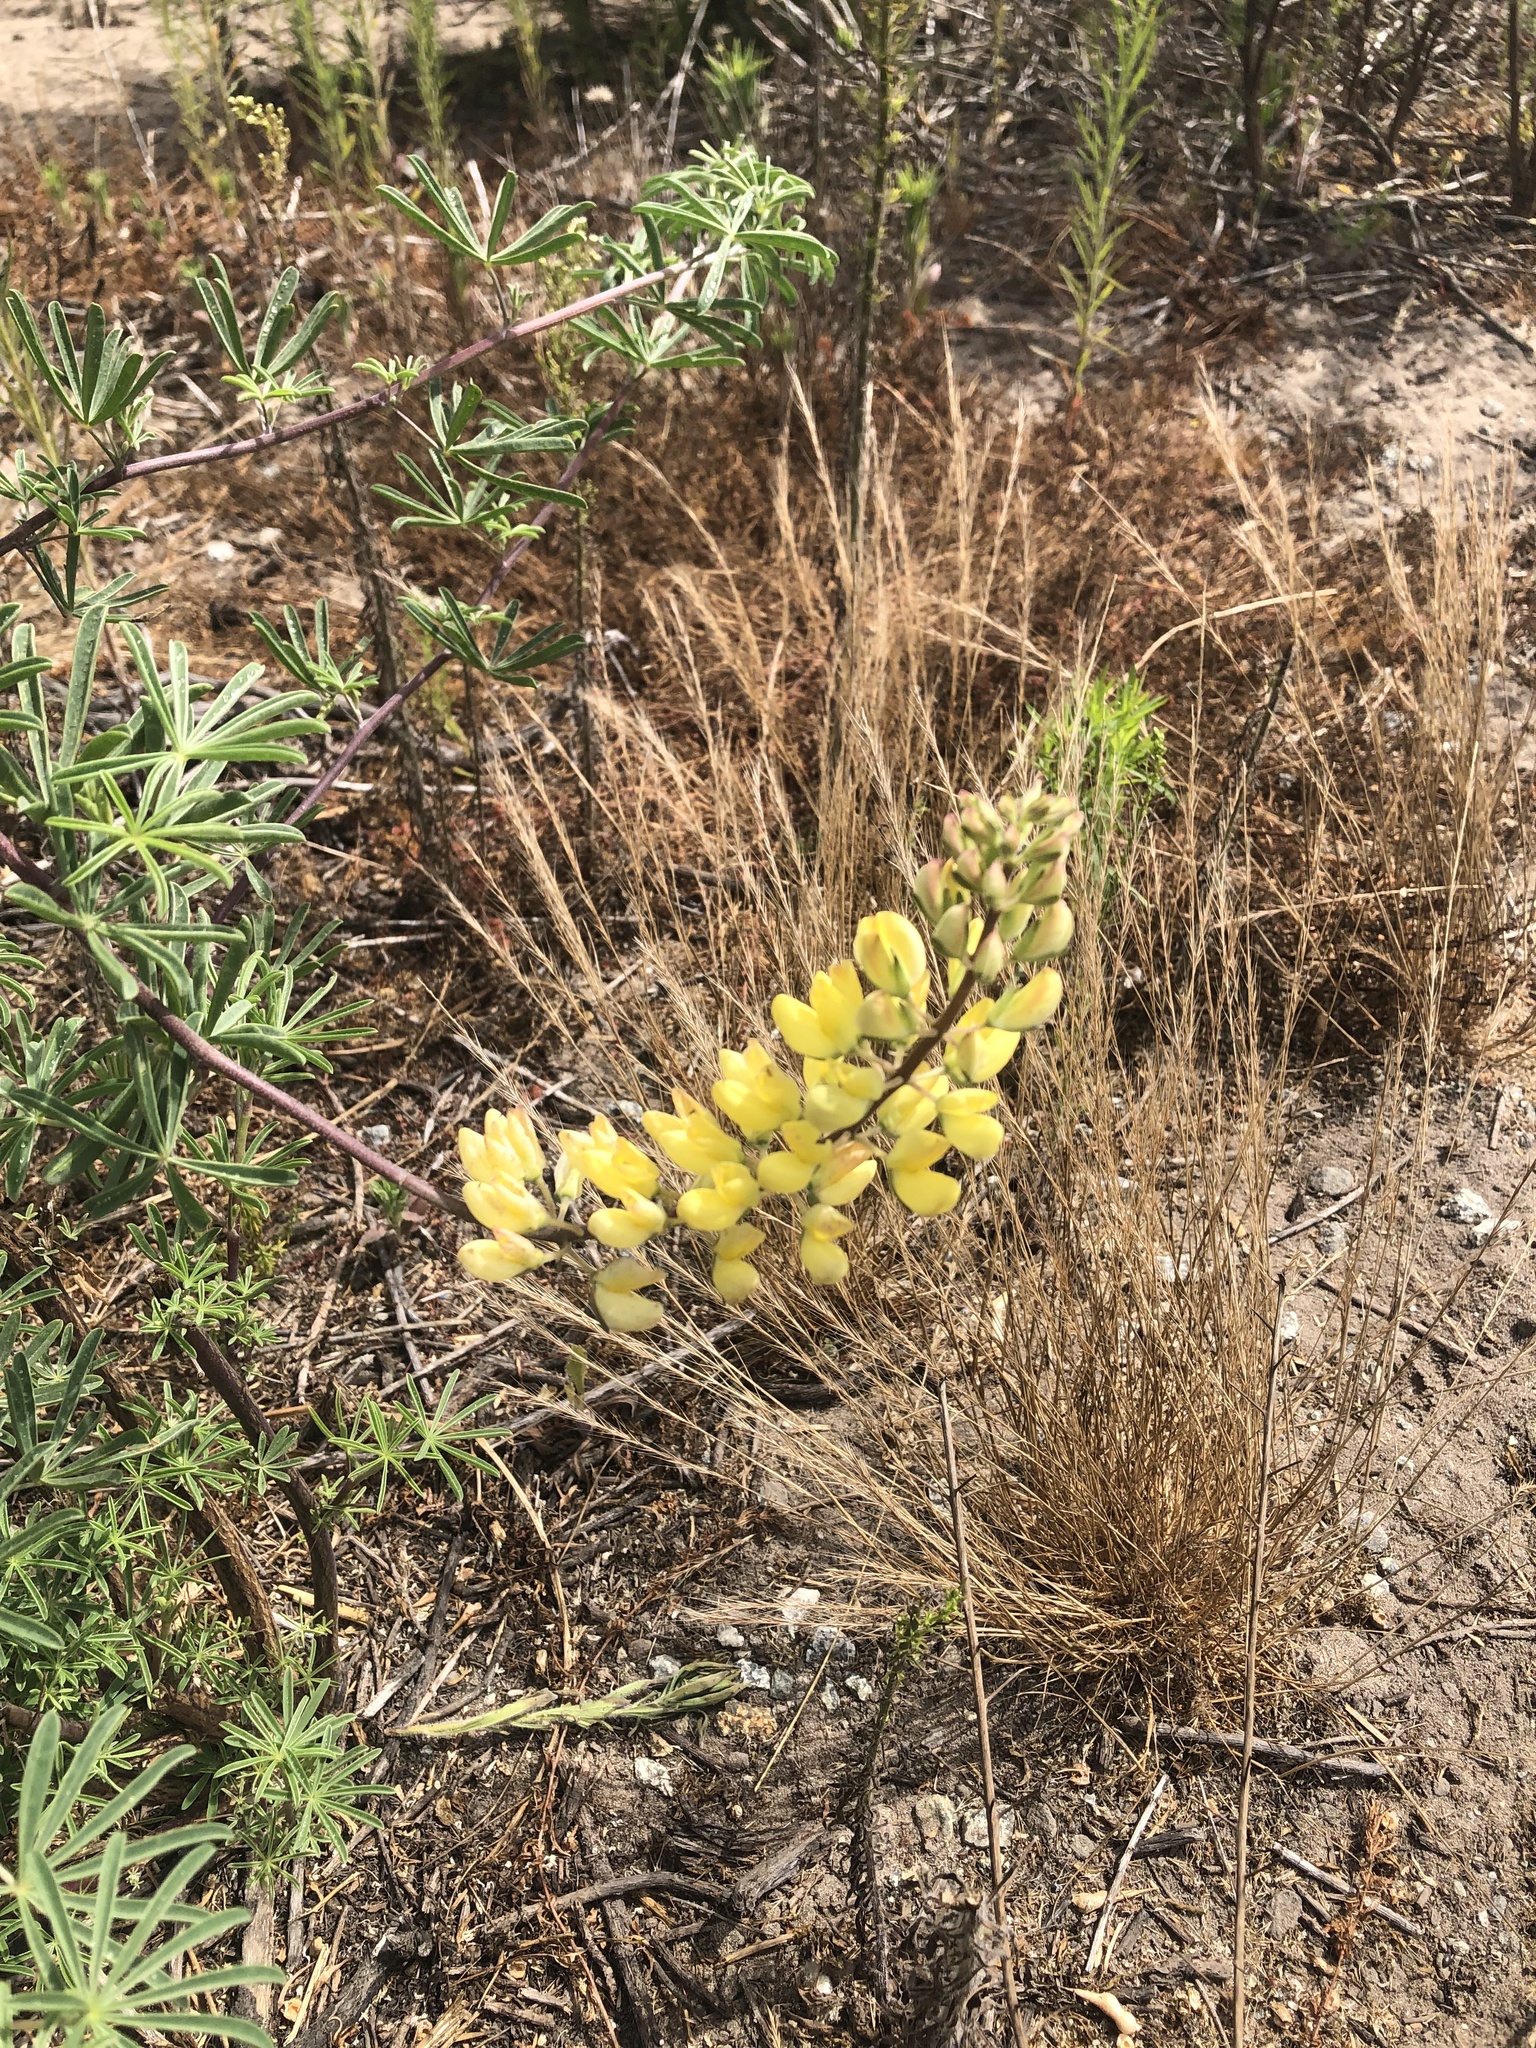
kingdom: Plantae
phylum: Tracheophyta
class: Magnoliopsida
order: Fabales
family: Fabaceae
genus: Lupinus
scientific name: Lupinus arboreus
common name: Yellow bush lupine
